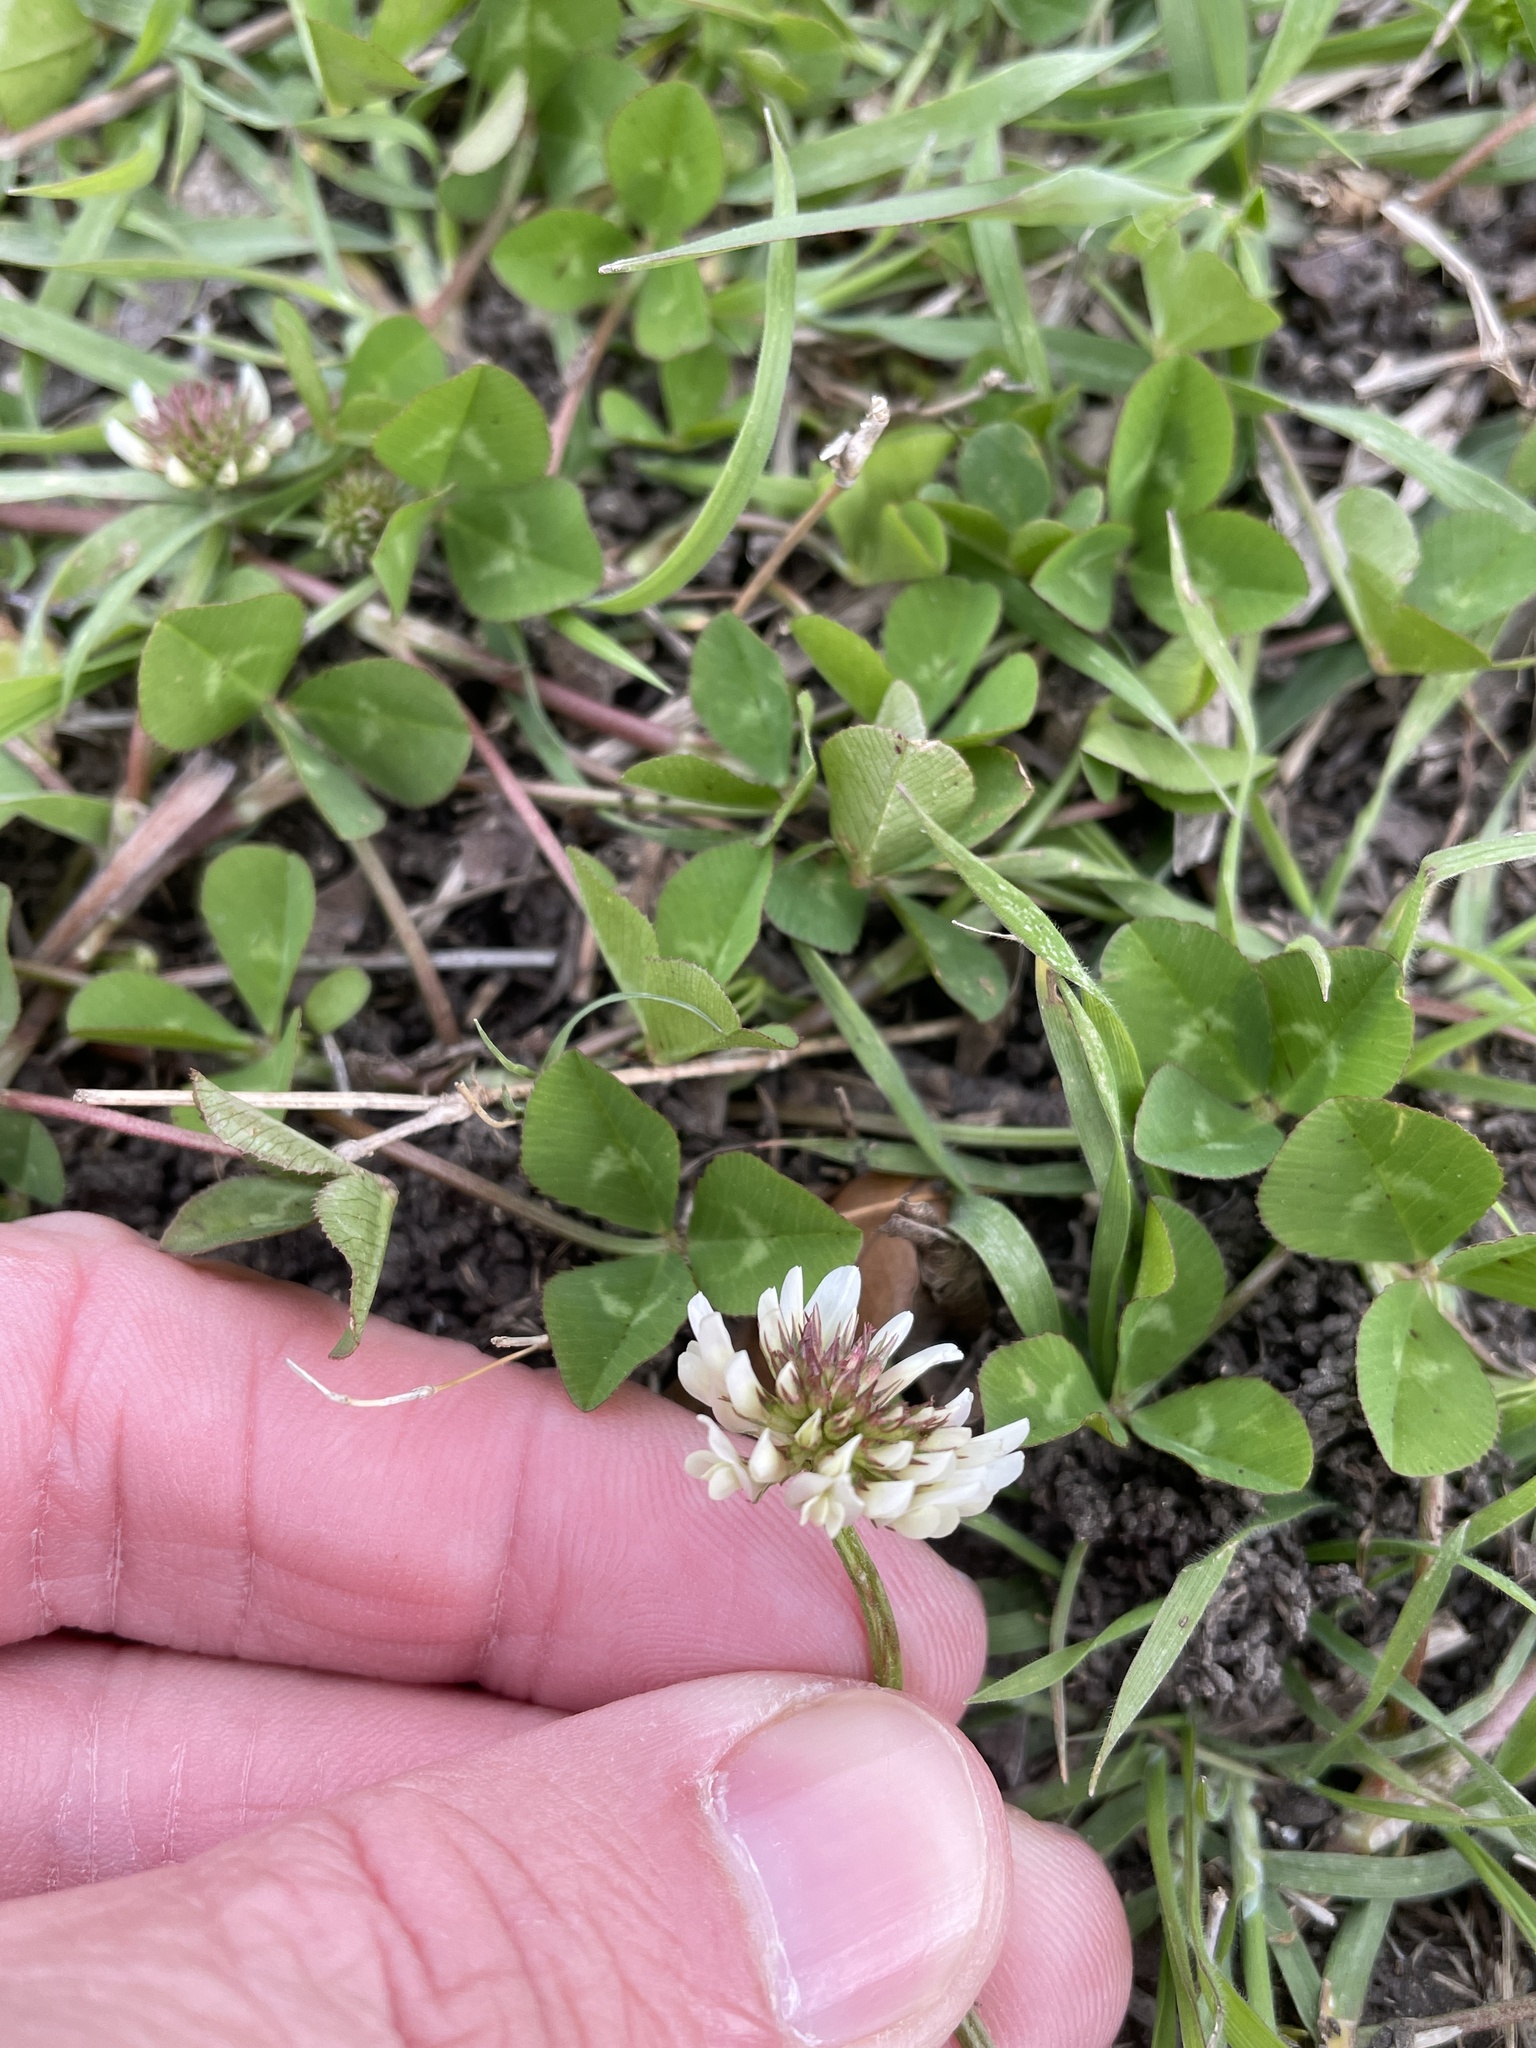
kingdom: Plantae
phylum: Tracheophyta
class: Magnoliopsida
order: Fabales
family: Fabaceae
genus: Trifolium
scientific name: Trifolium repens
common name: White clover
